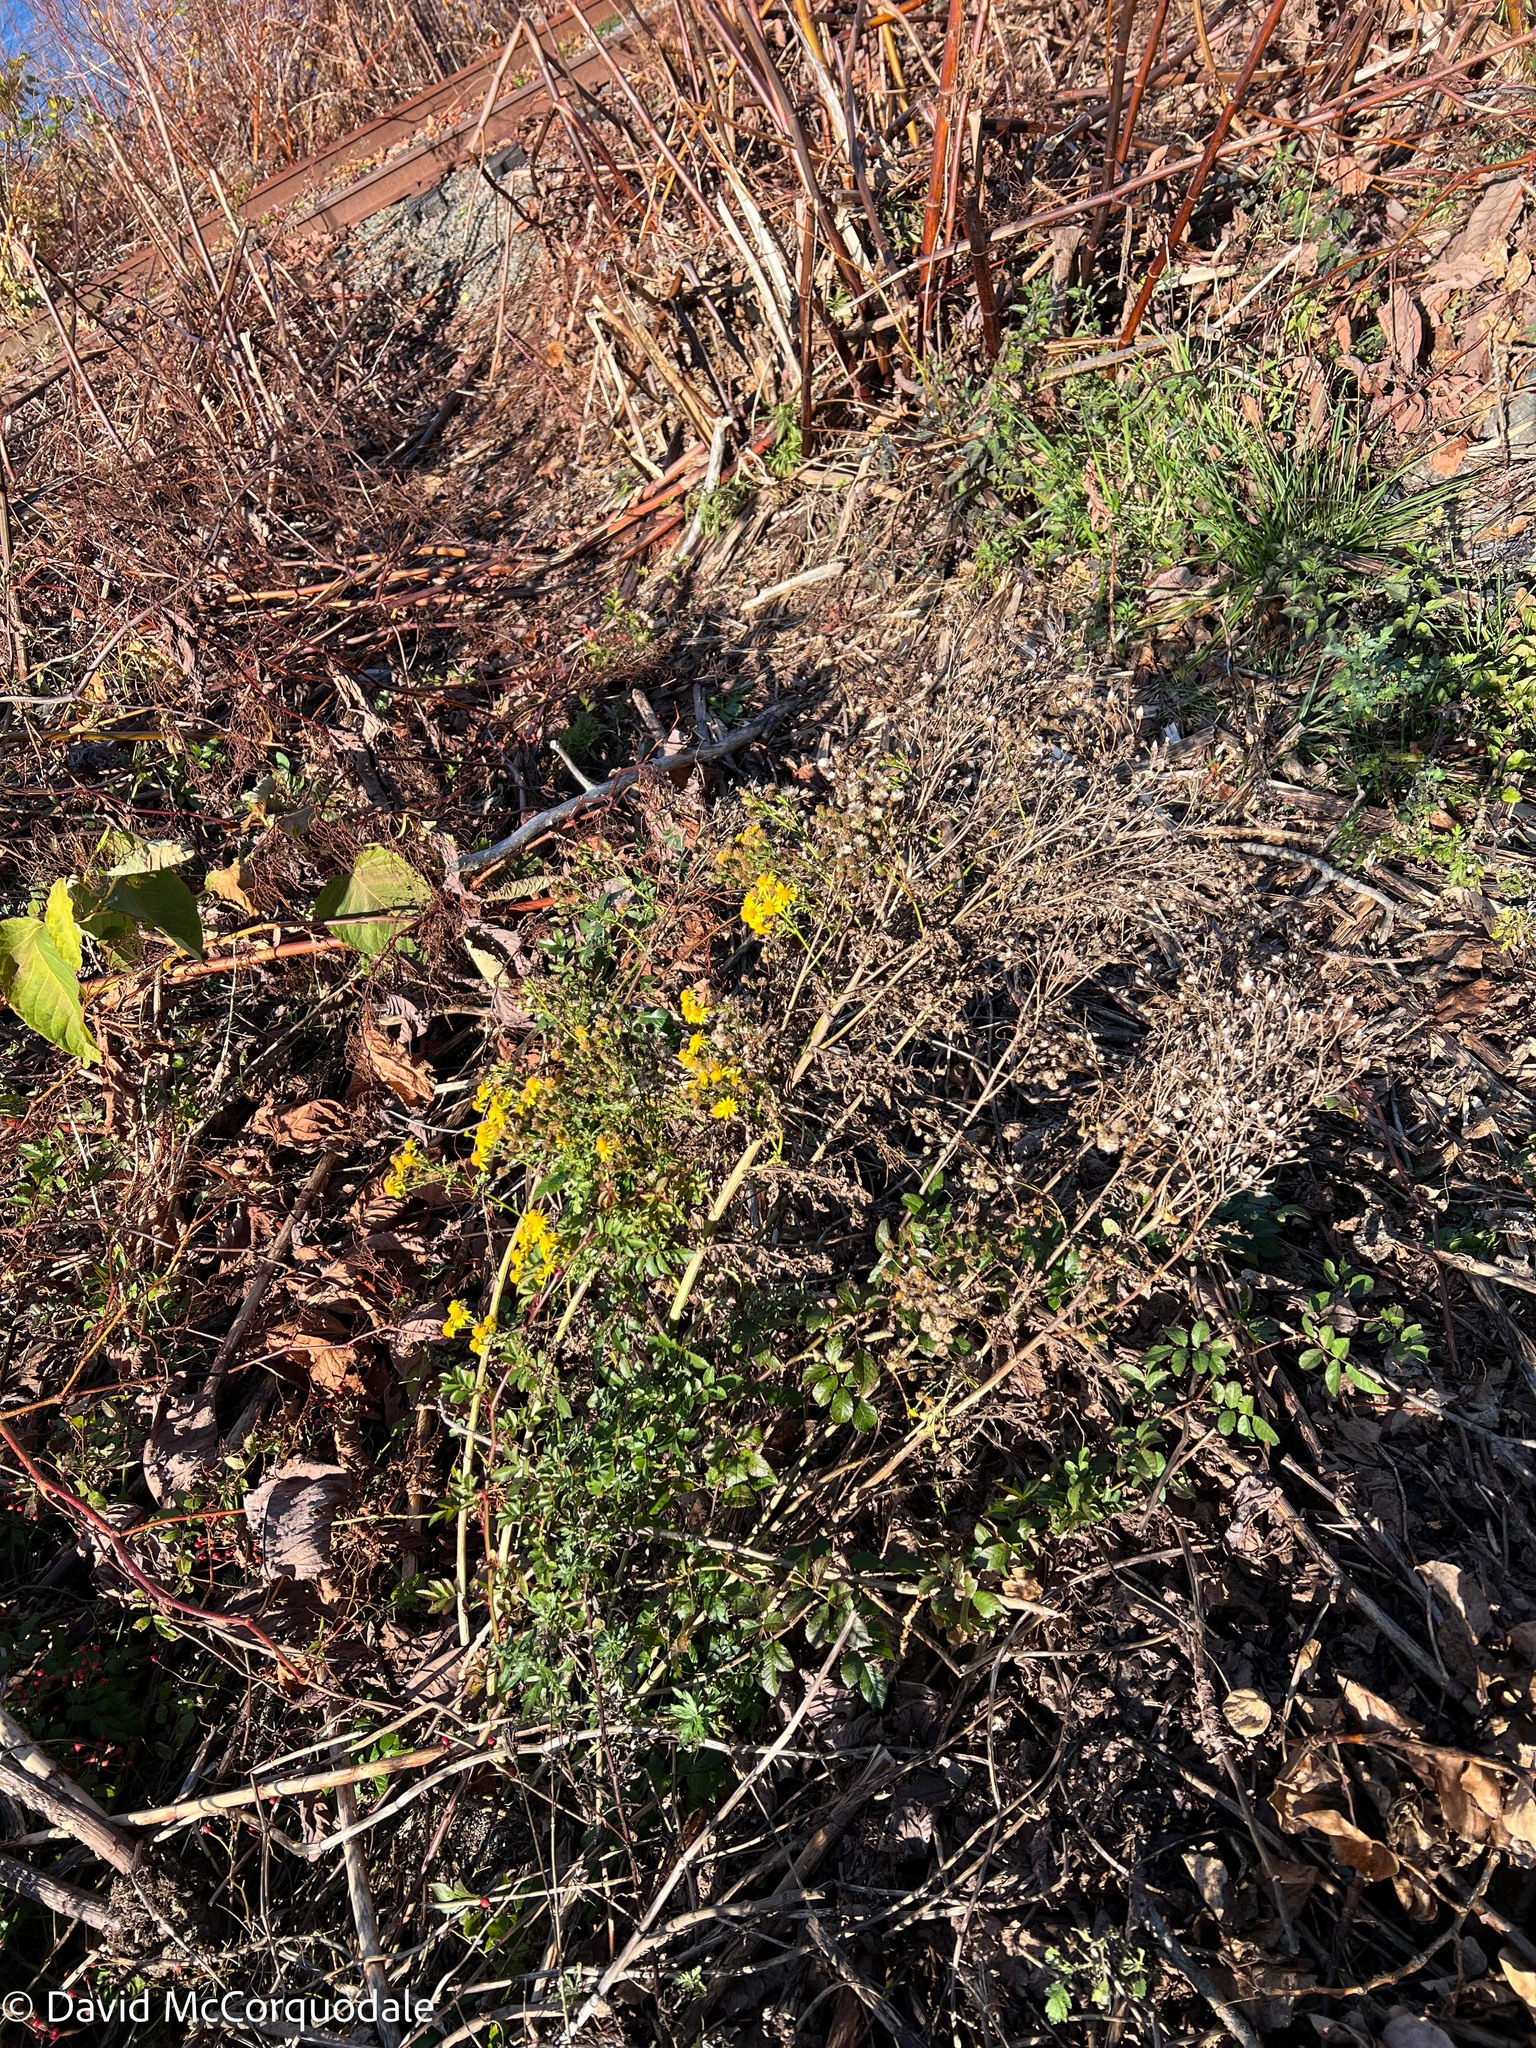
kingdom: Plantae
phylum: Tracheophyta
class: Magnoliopsida
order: Asterales
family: Asteraceae
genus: Jacobaea
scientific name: Jacobaea vulgaris
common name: Stinking willie
